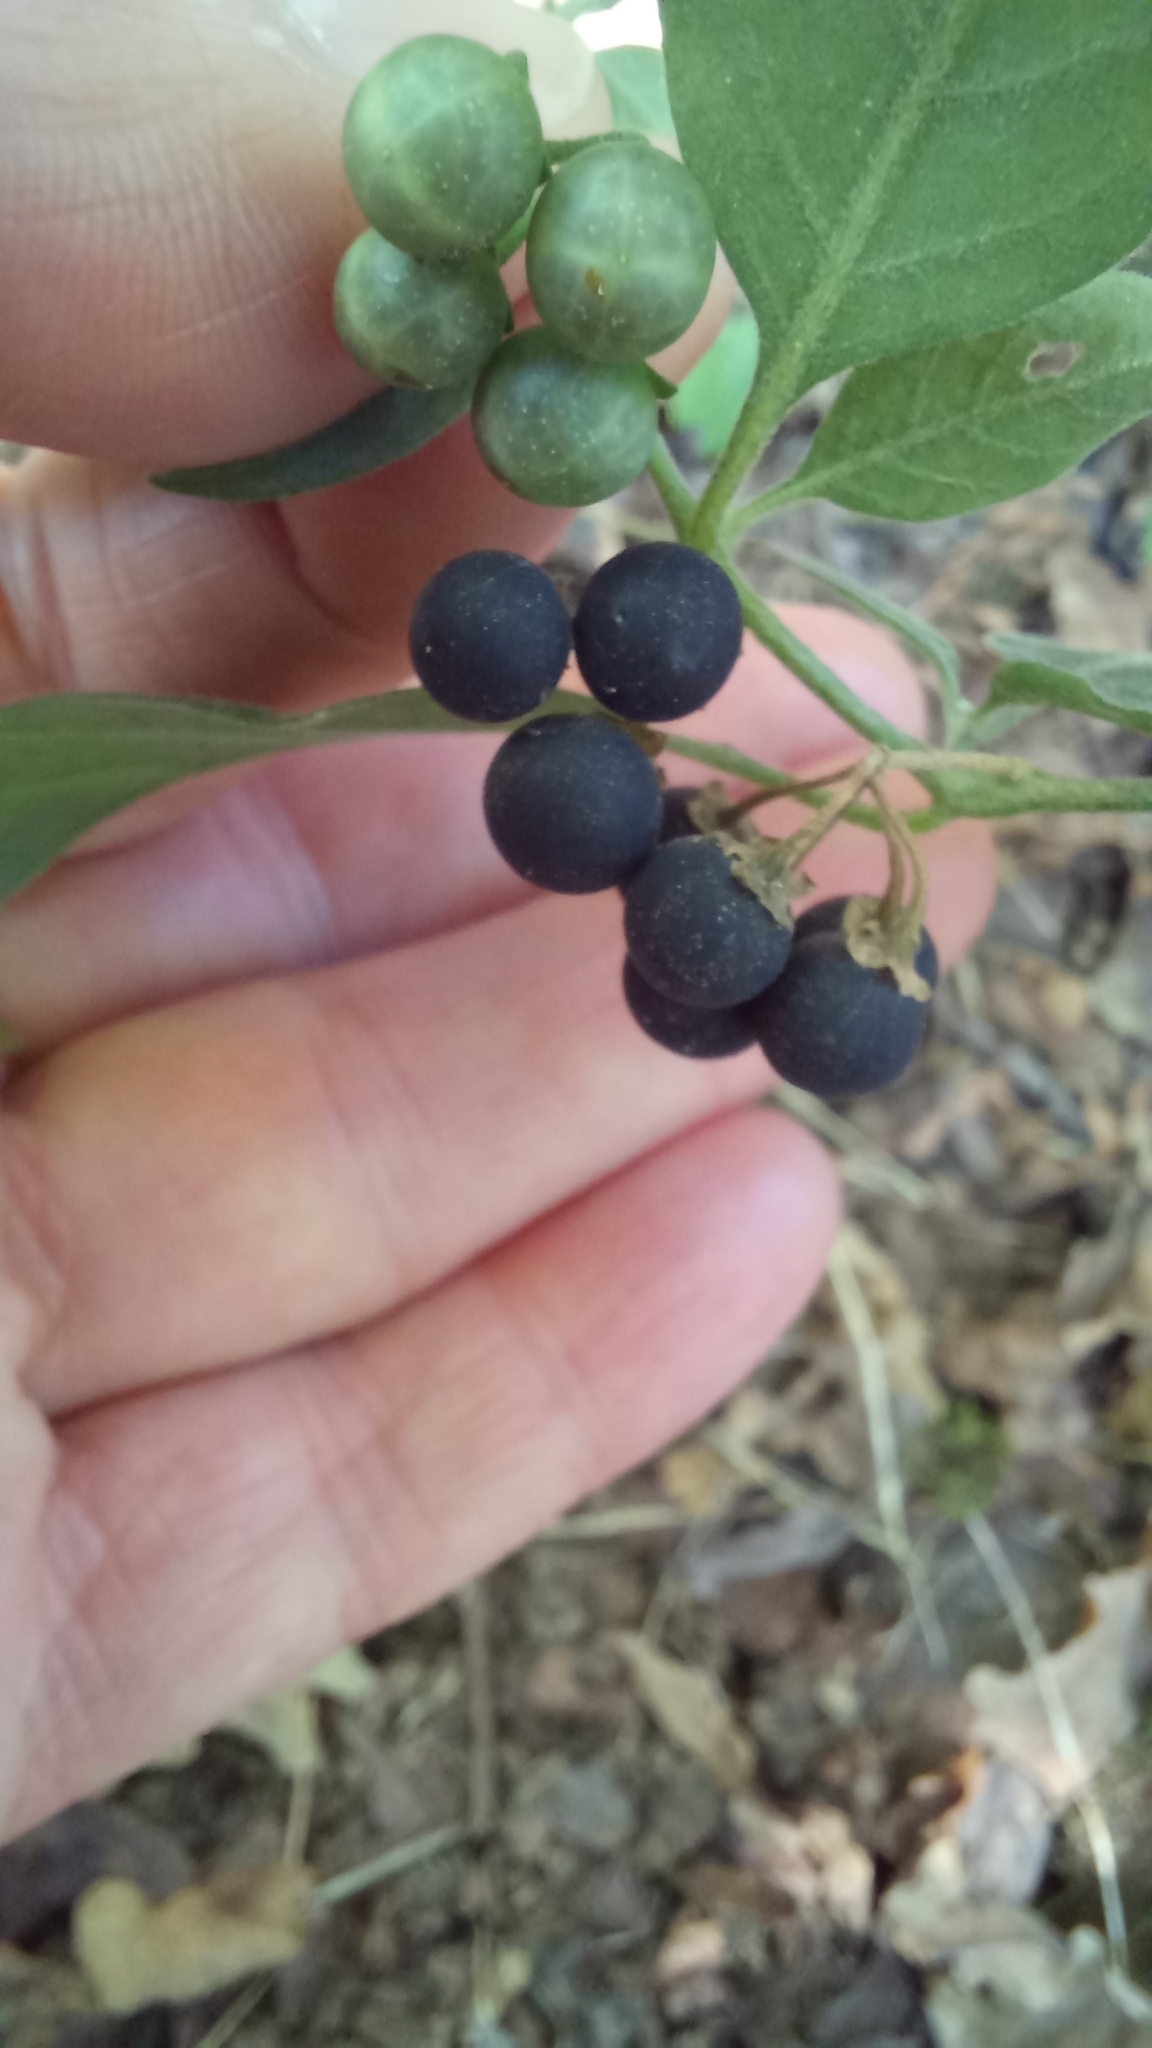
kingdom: Plantae
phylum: Tracheophyta
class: Magnoliopsida
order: Solanales
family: Solanaceae
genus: Solanum
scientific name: Solanum chenopodioides
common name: Tall nightshade
